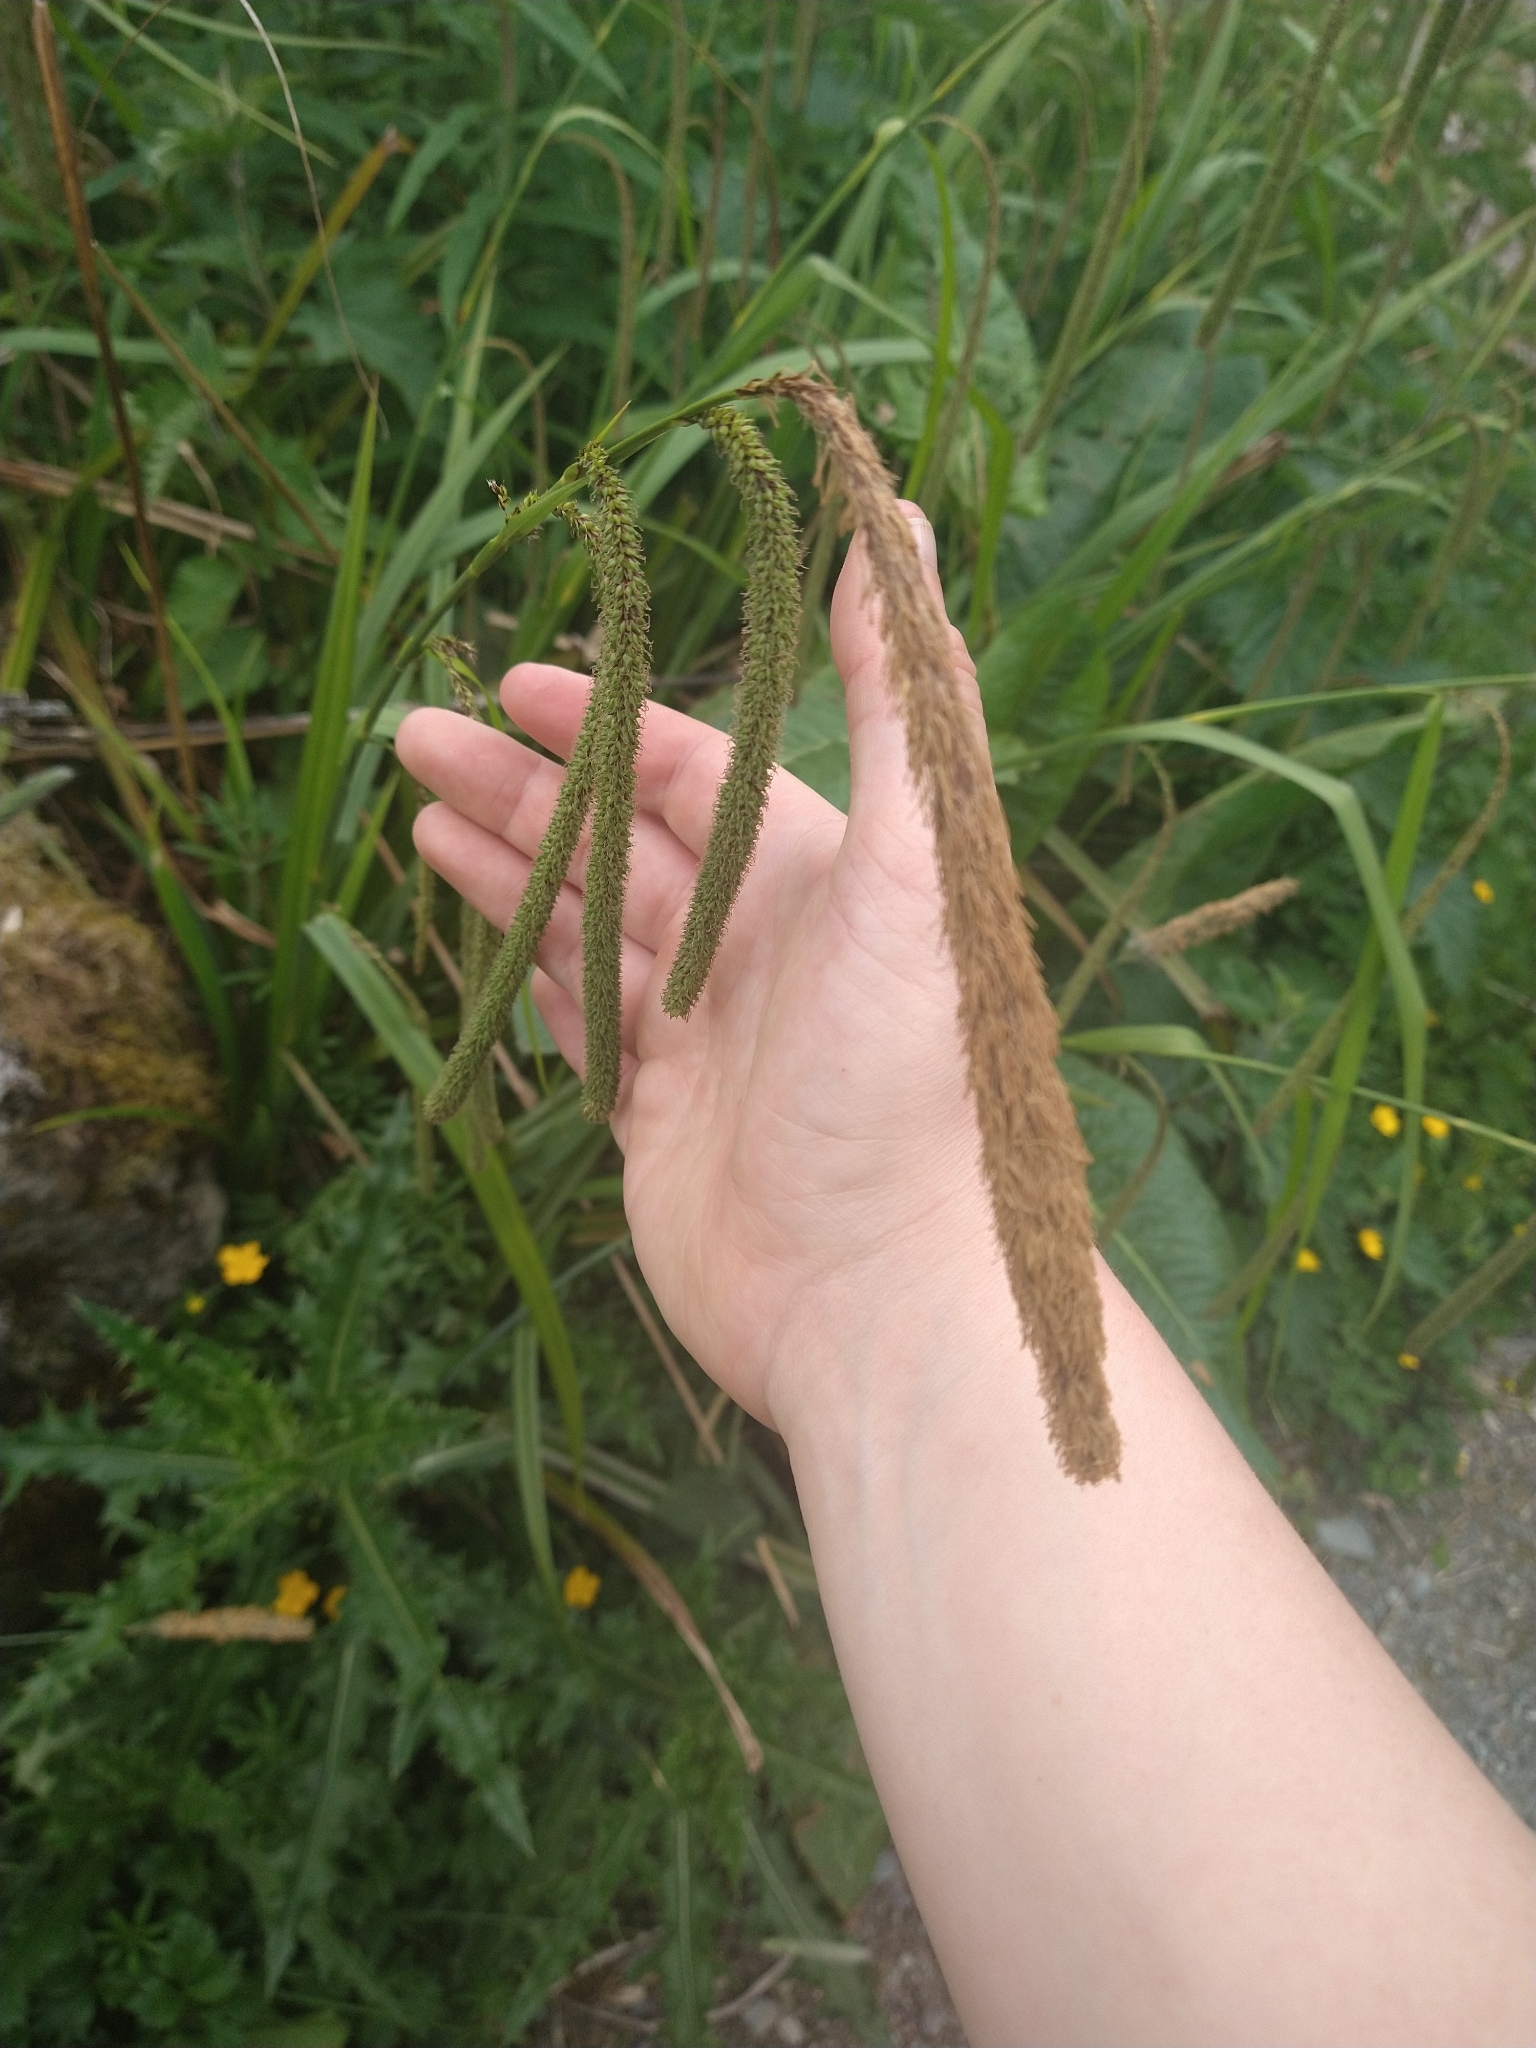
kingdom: Plantae
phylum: Tracheophyta
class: Liliopsida
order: Poales
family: Cyperaceae
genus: Carex
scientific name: Carex pendula
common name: Pendulous sedge
